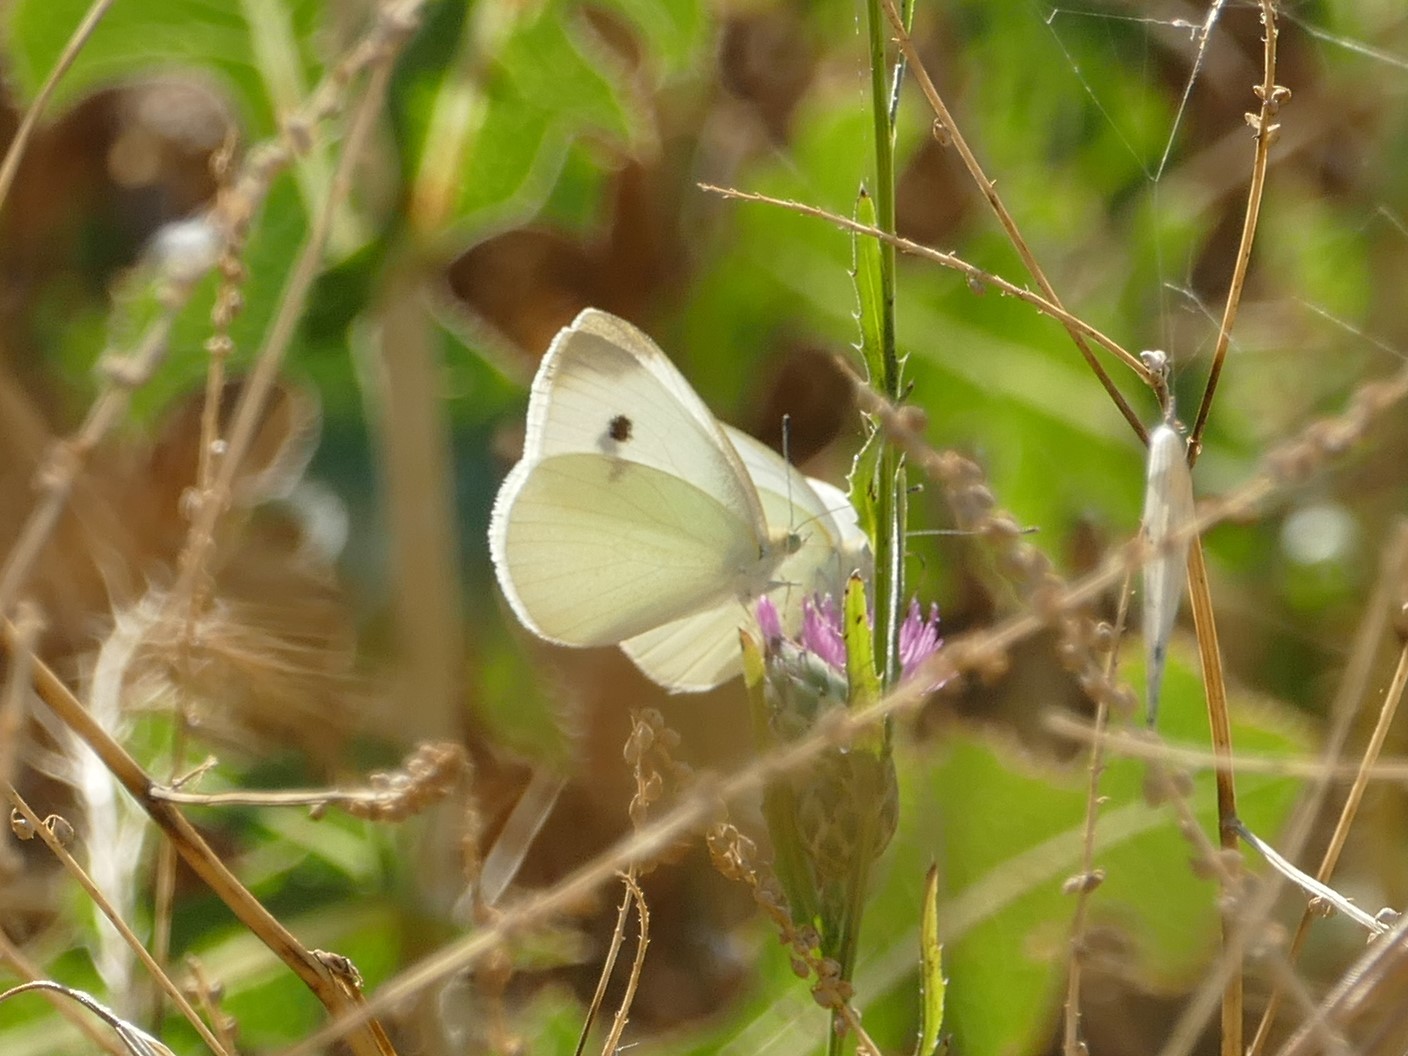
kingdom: Animalia
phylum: Arthropoda
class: Insecta
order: Lepidoptera
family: Pieridae
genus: Pieris
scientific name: Pieris rapae
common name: Small white
